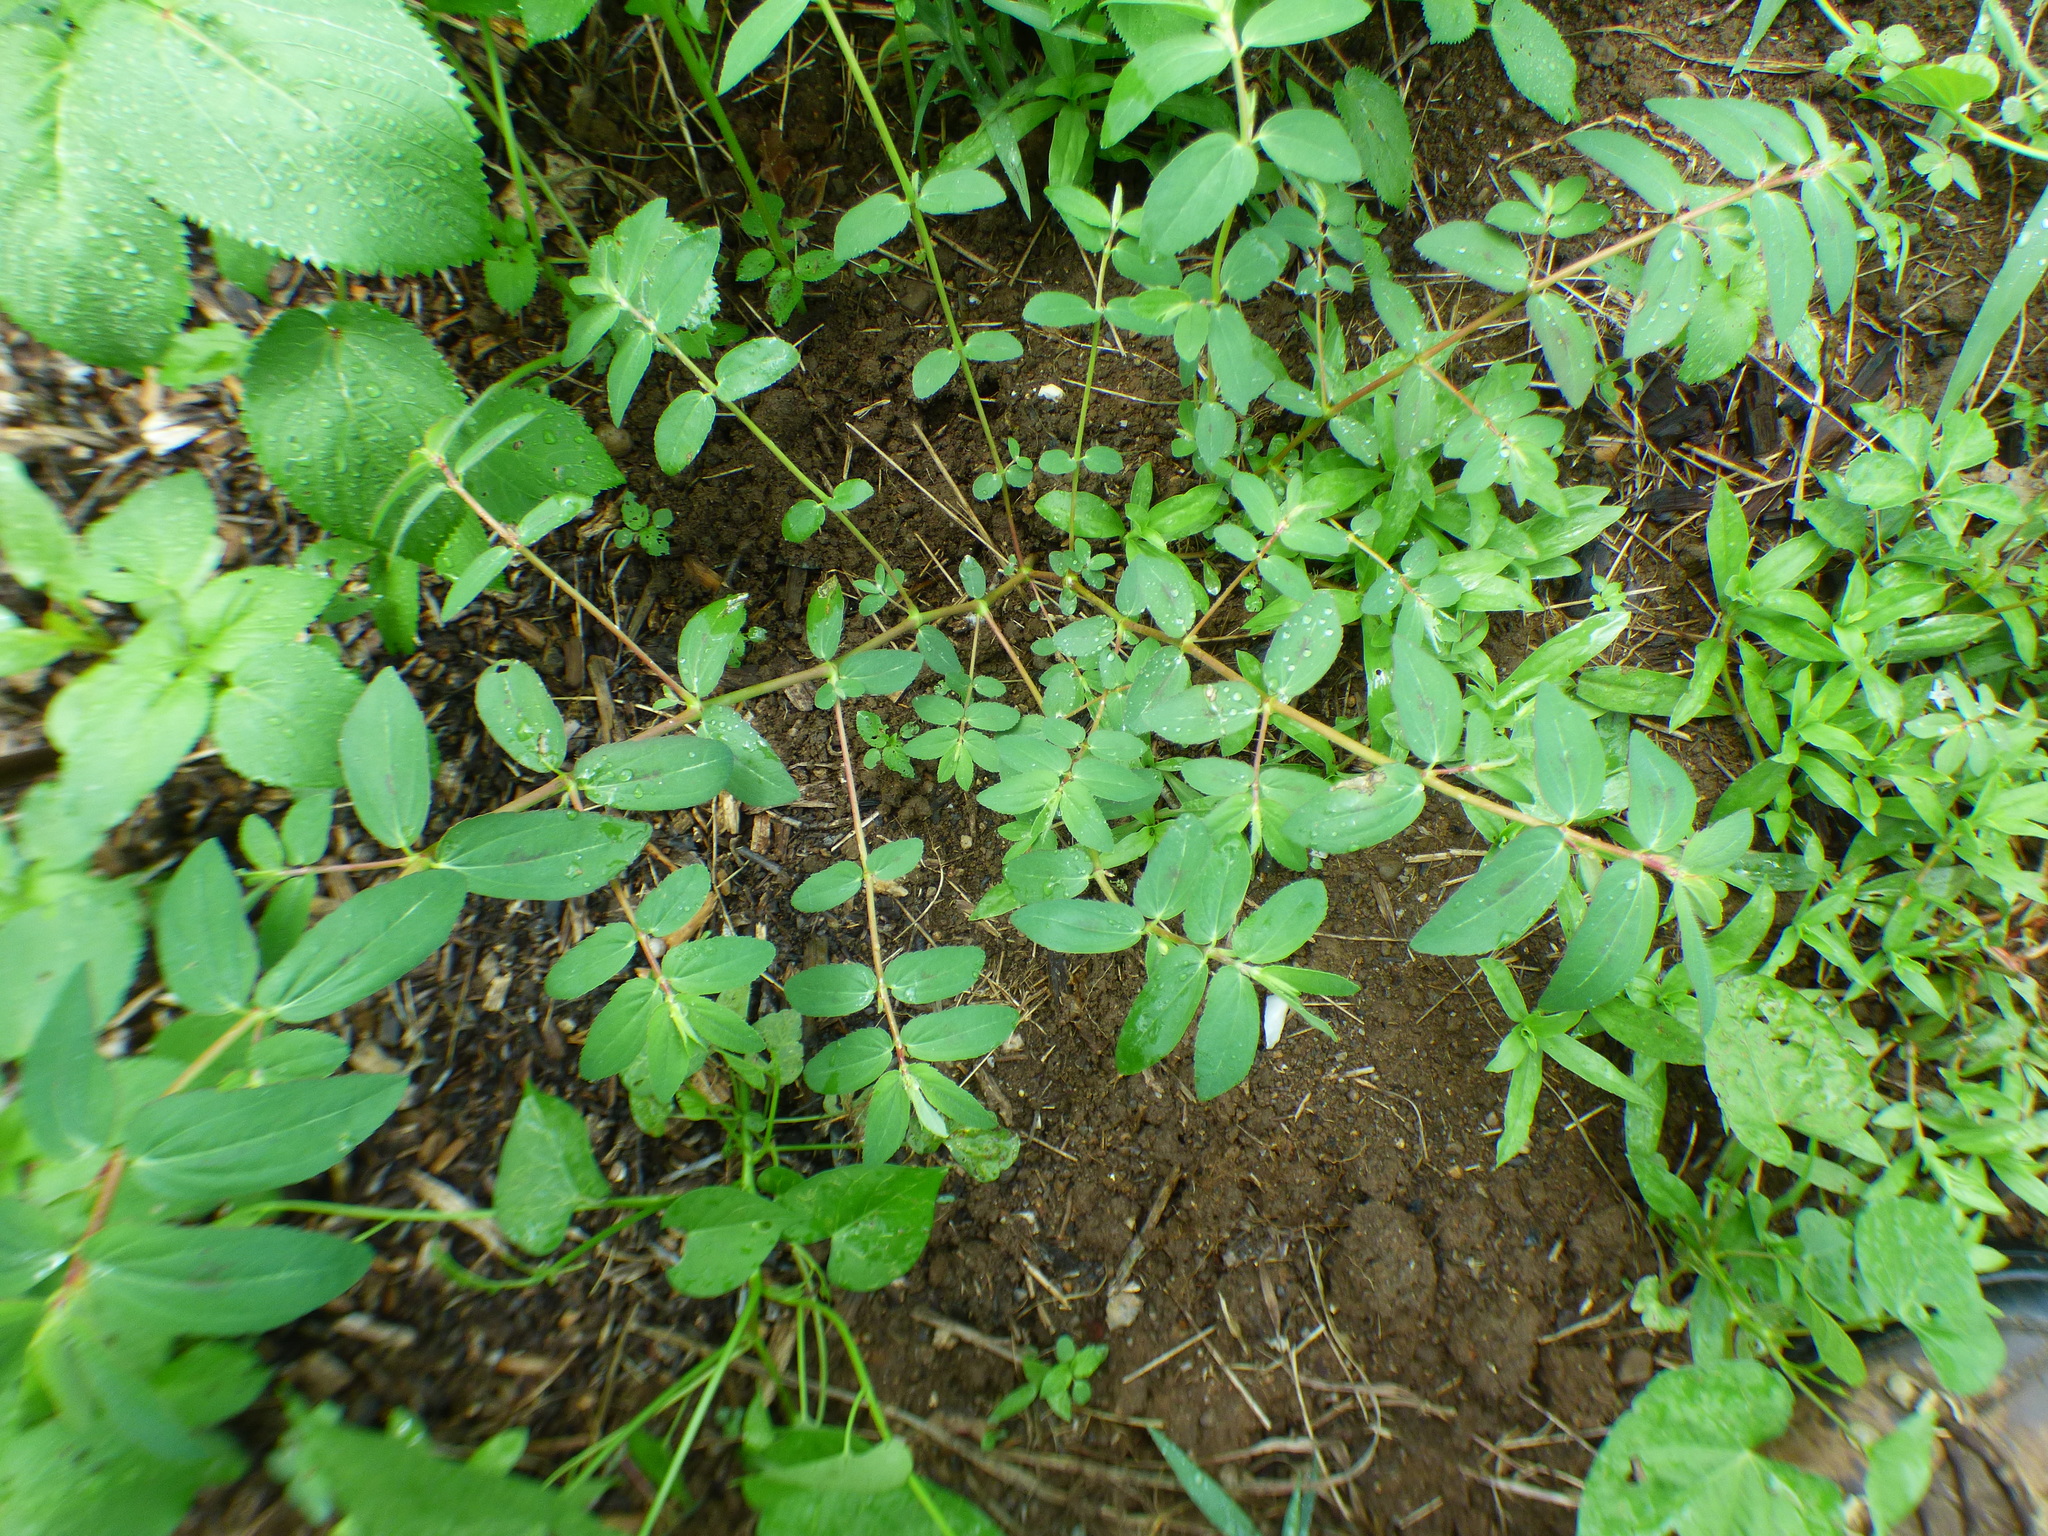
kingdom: Plantae
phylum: Tracheophyta
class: Magnoliopsida
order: Malpighiales
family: Euphorbiaceae
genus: Euphorbia
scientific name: Euphorbia nutans
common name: Eyebane
